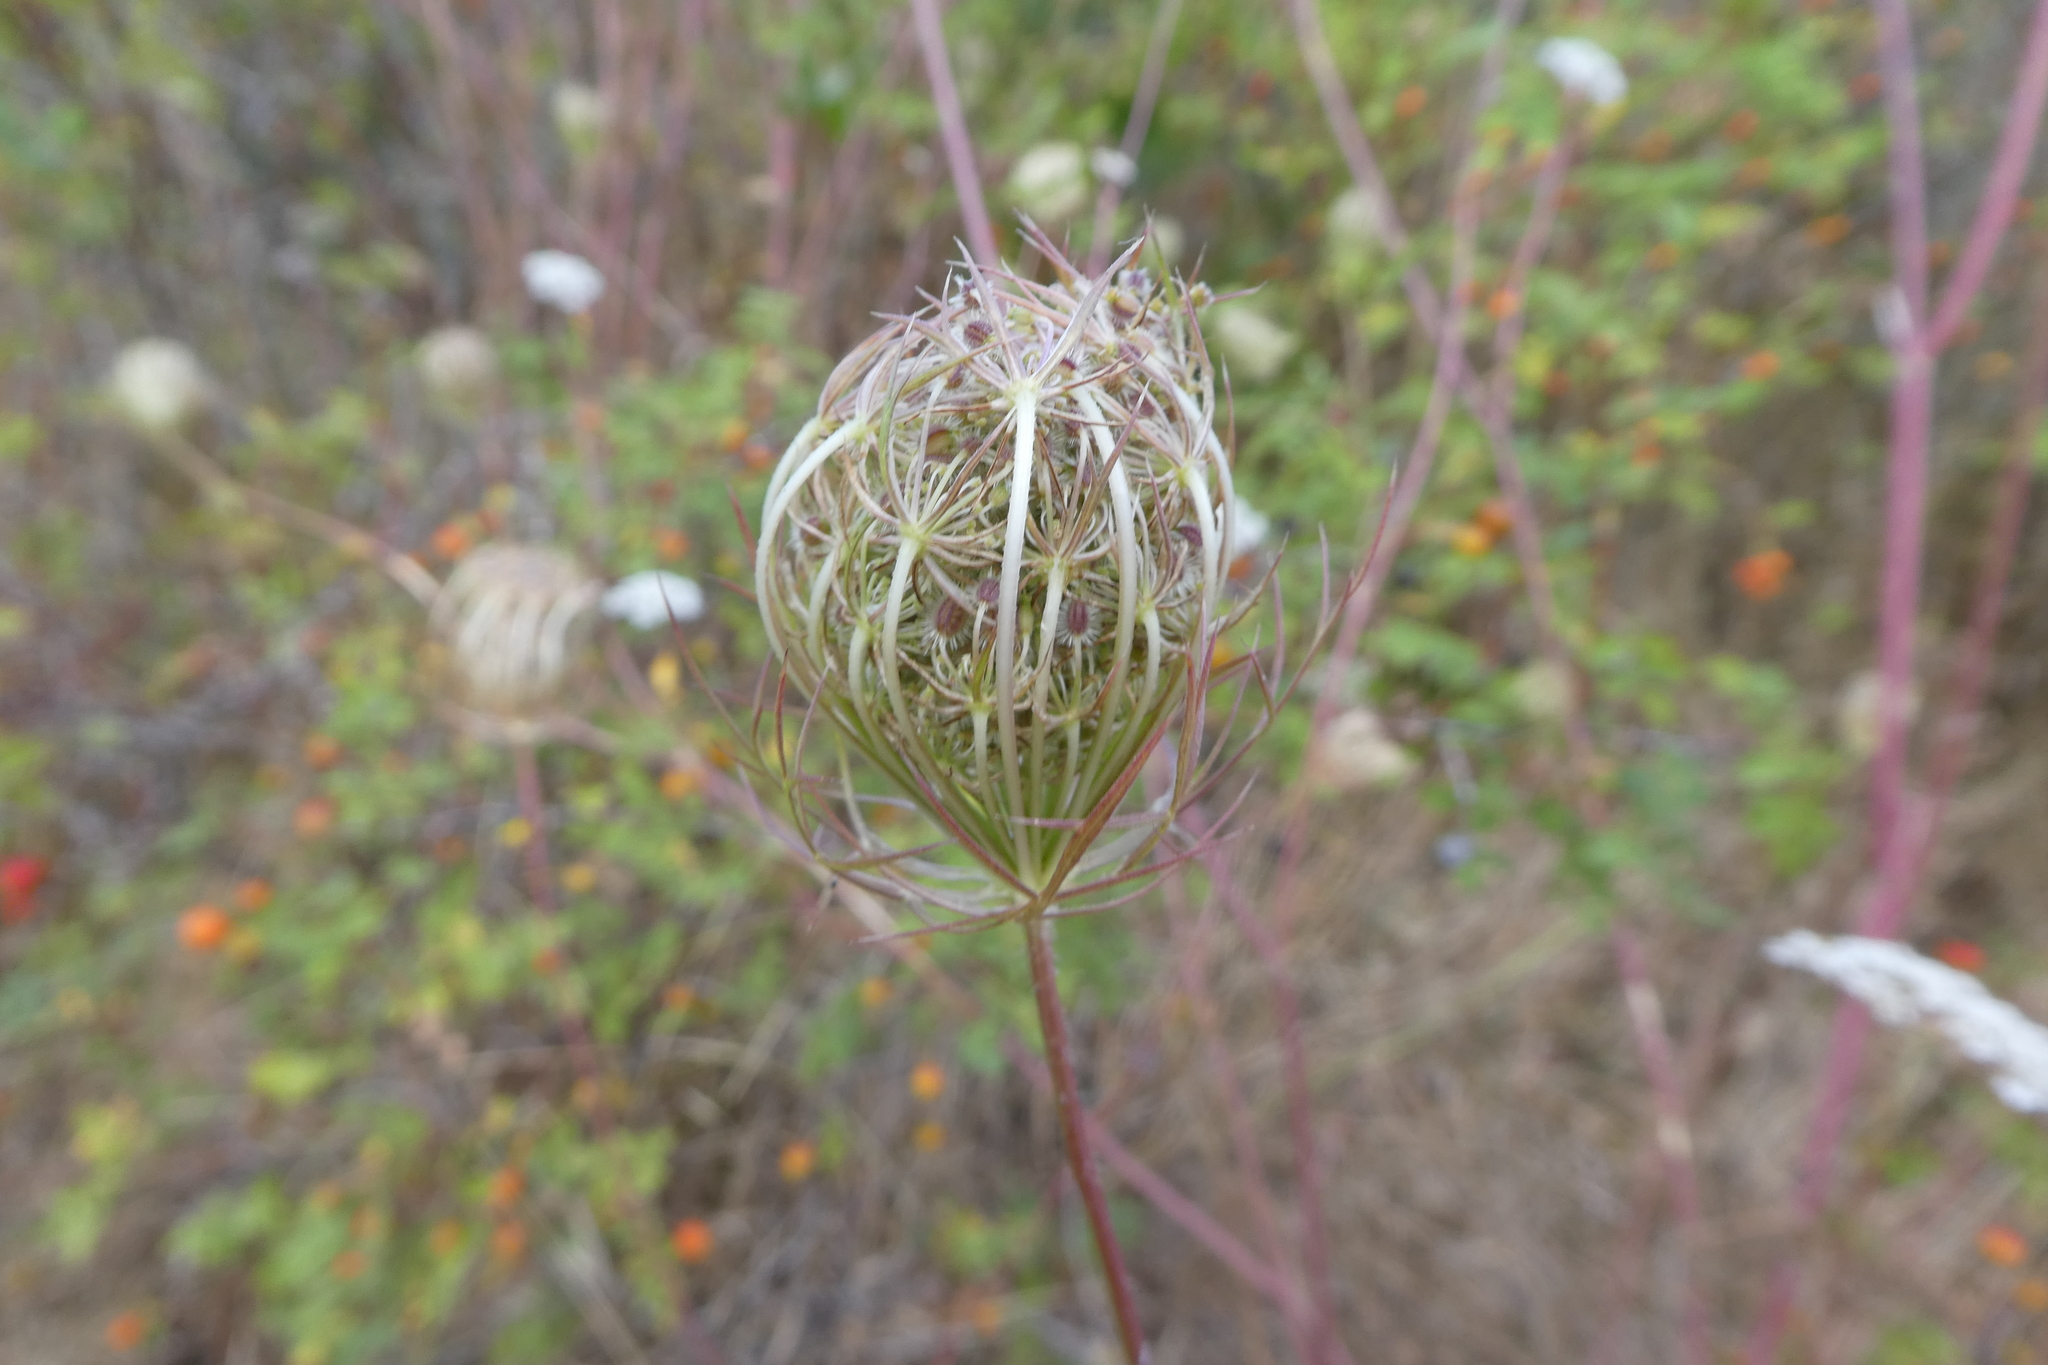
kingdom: Plantae
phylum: Tracheophyta
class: Magnoliopsida
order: Apiales
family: Apiaceae
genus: Daucus
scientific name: Daucus carota
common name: Wild carrot
